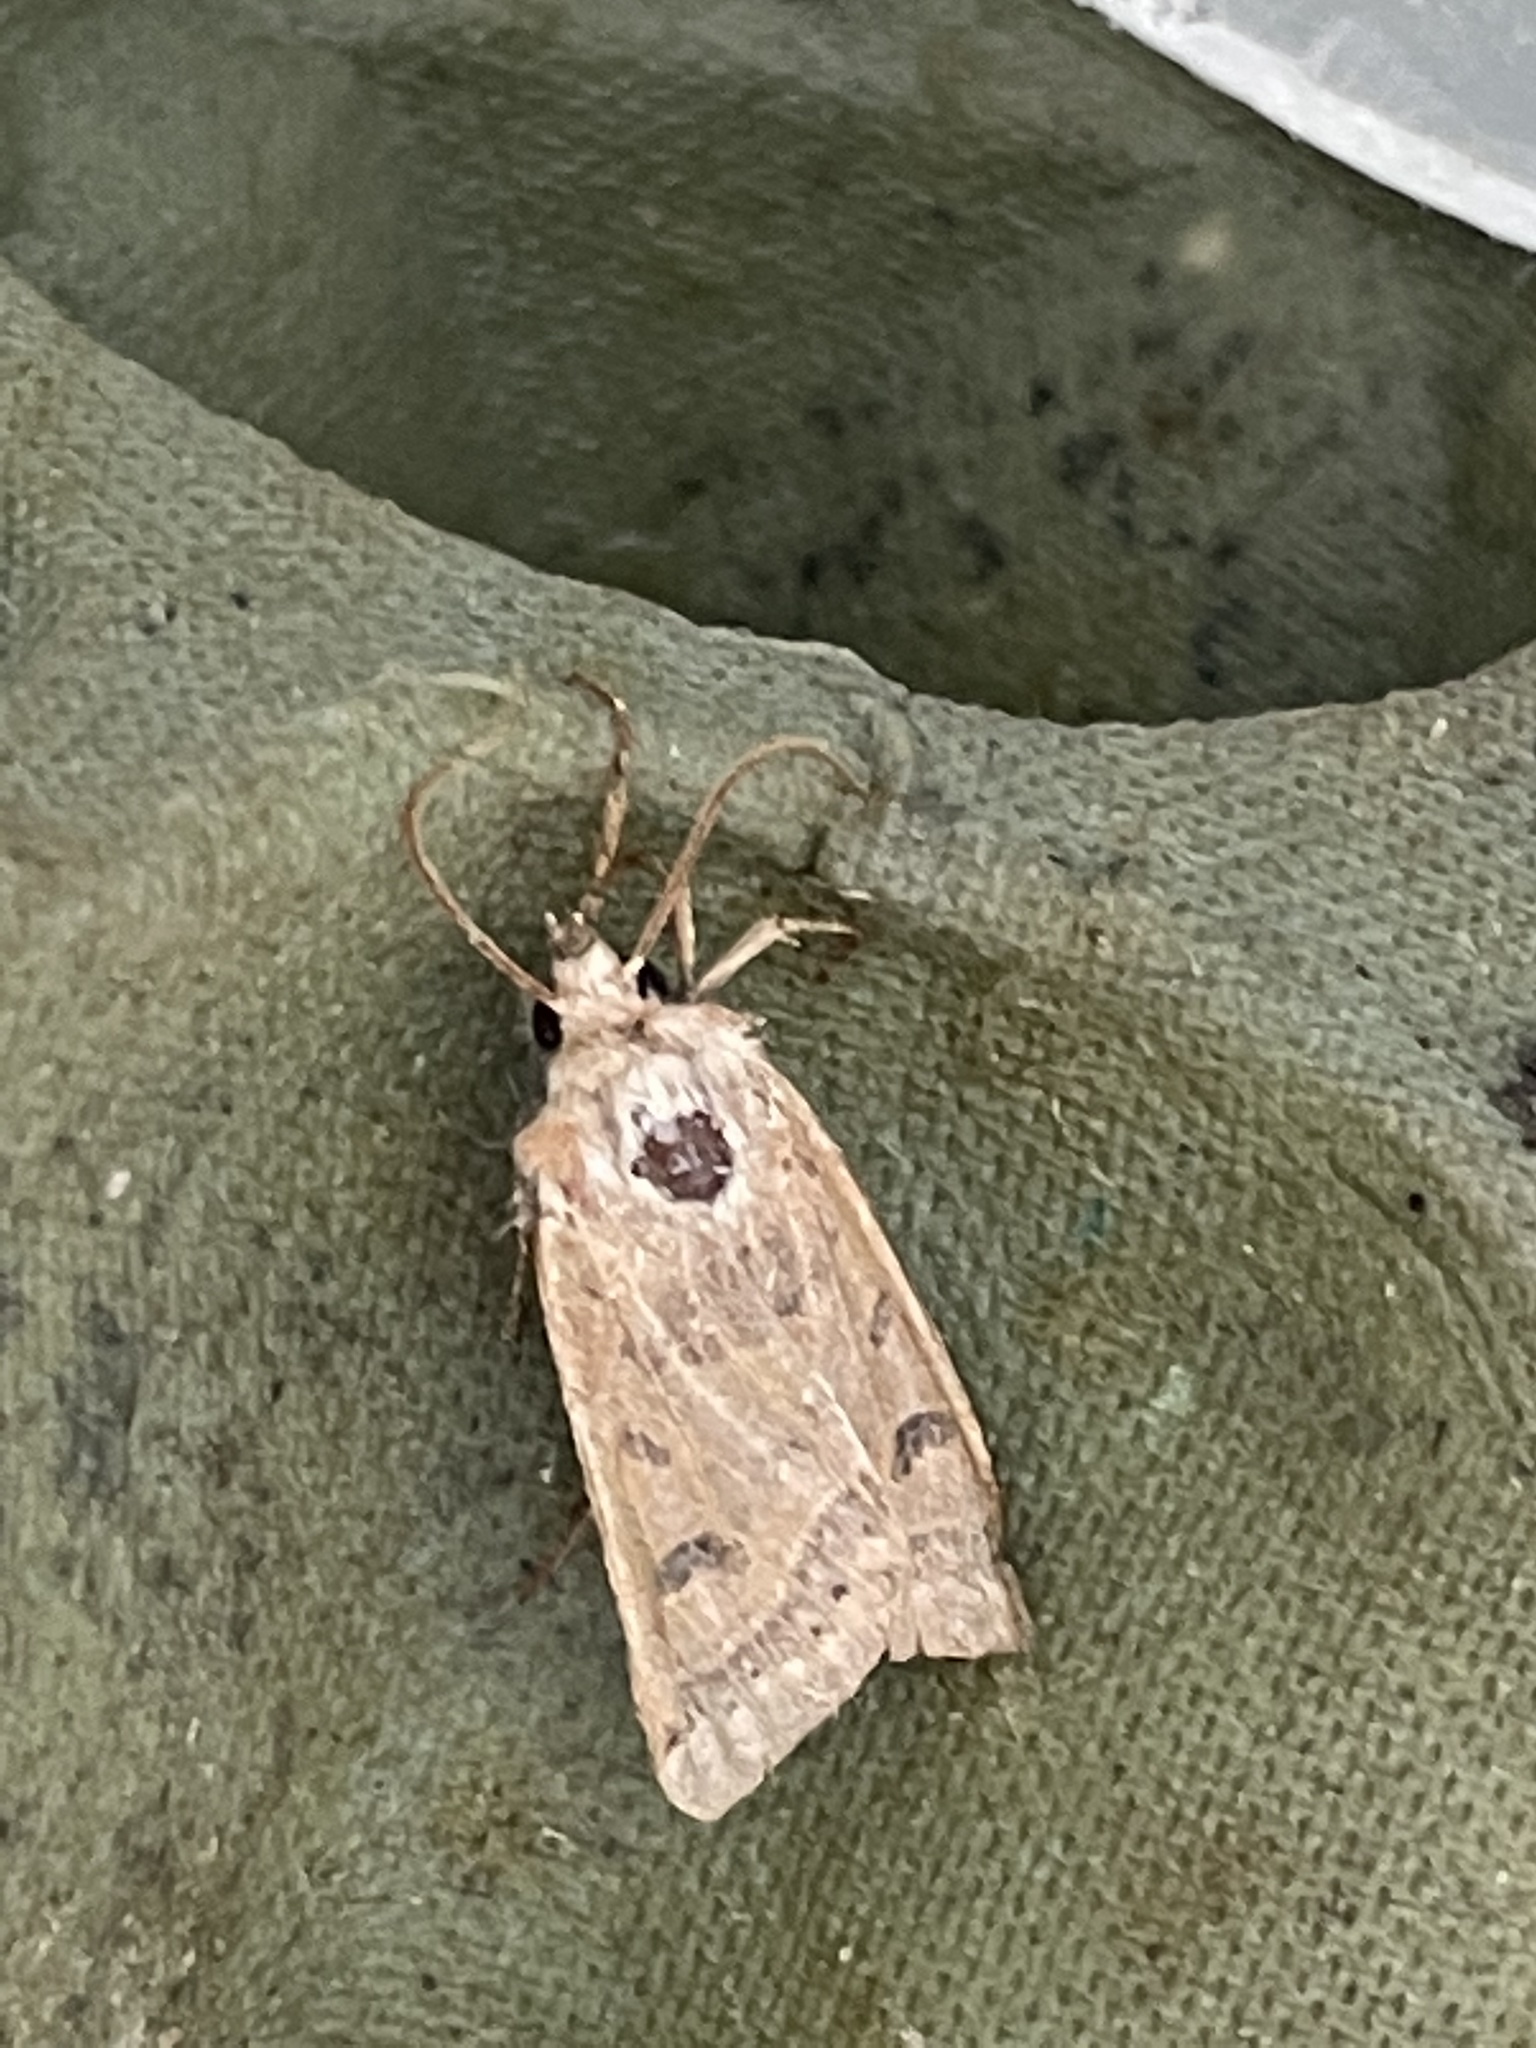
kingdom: Animalia
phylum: Arthropoda
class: Insecta
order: Lepidoptera
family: Noctuidae
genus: Agrochola
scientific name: Agrochola lychnidis
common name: Beaded chestnut
